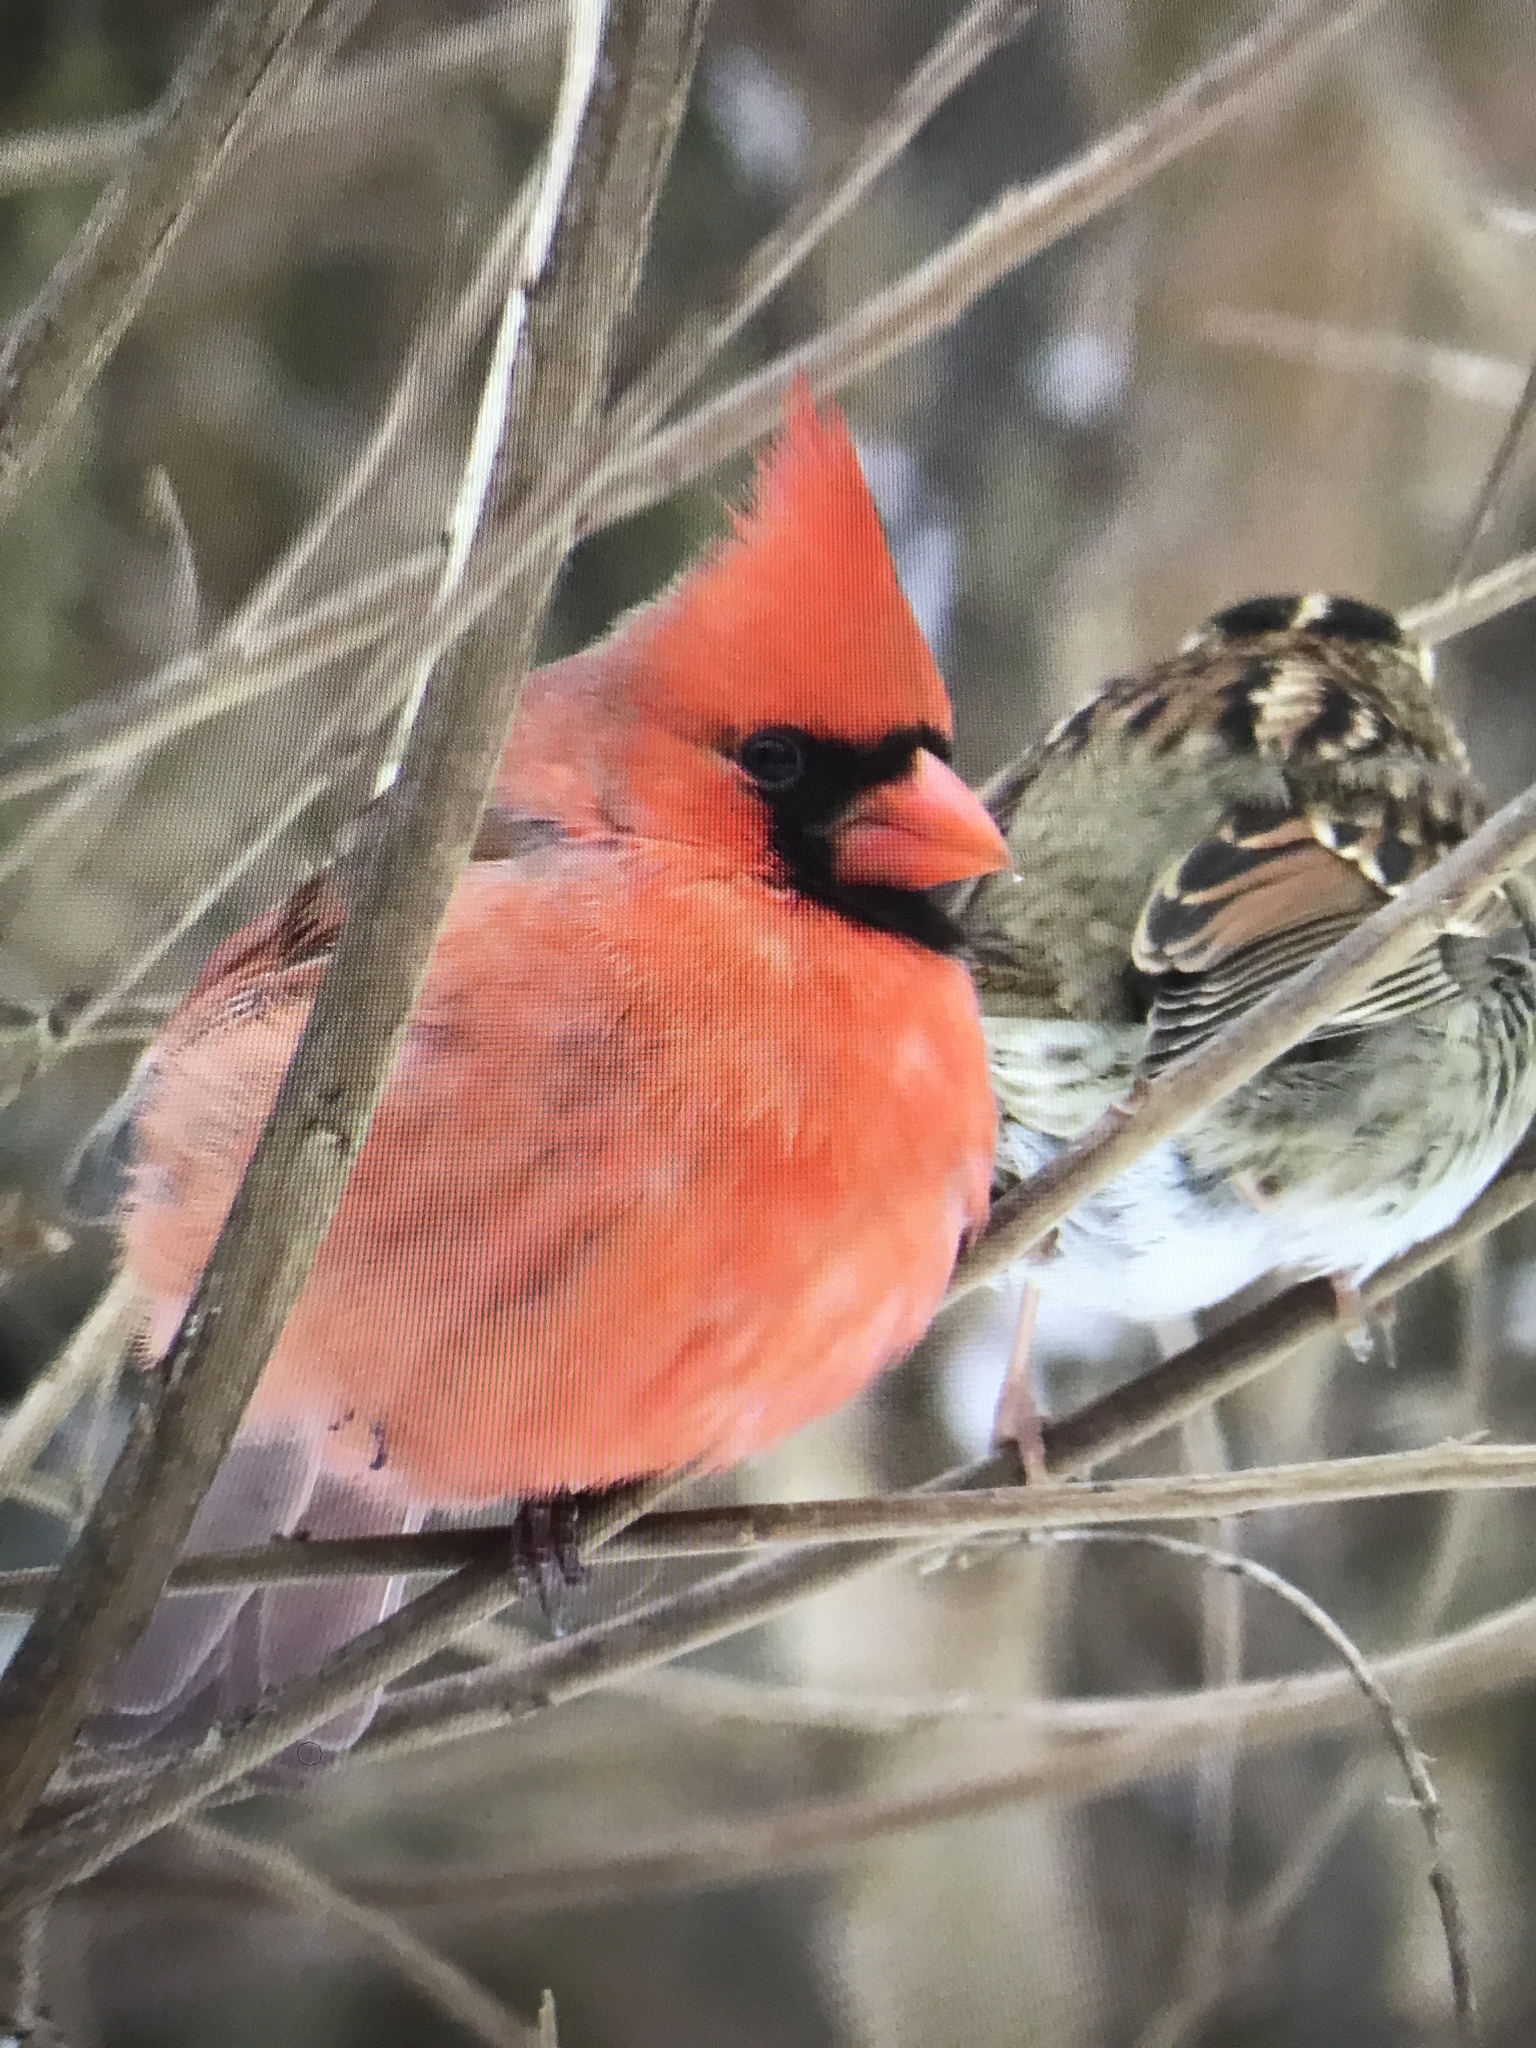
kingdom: Animalia
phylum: Chordata
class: Aves
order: Passeriformes
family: Cardinalidae
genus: Cardinalis
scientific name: Cardinalis cardinalis
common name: Northern cardinal
